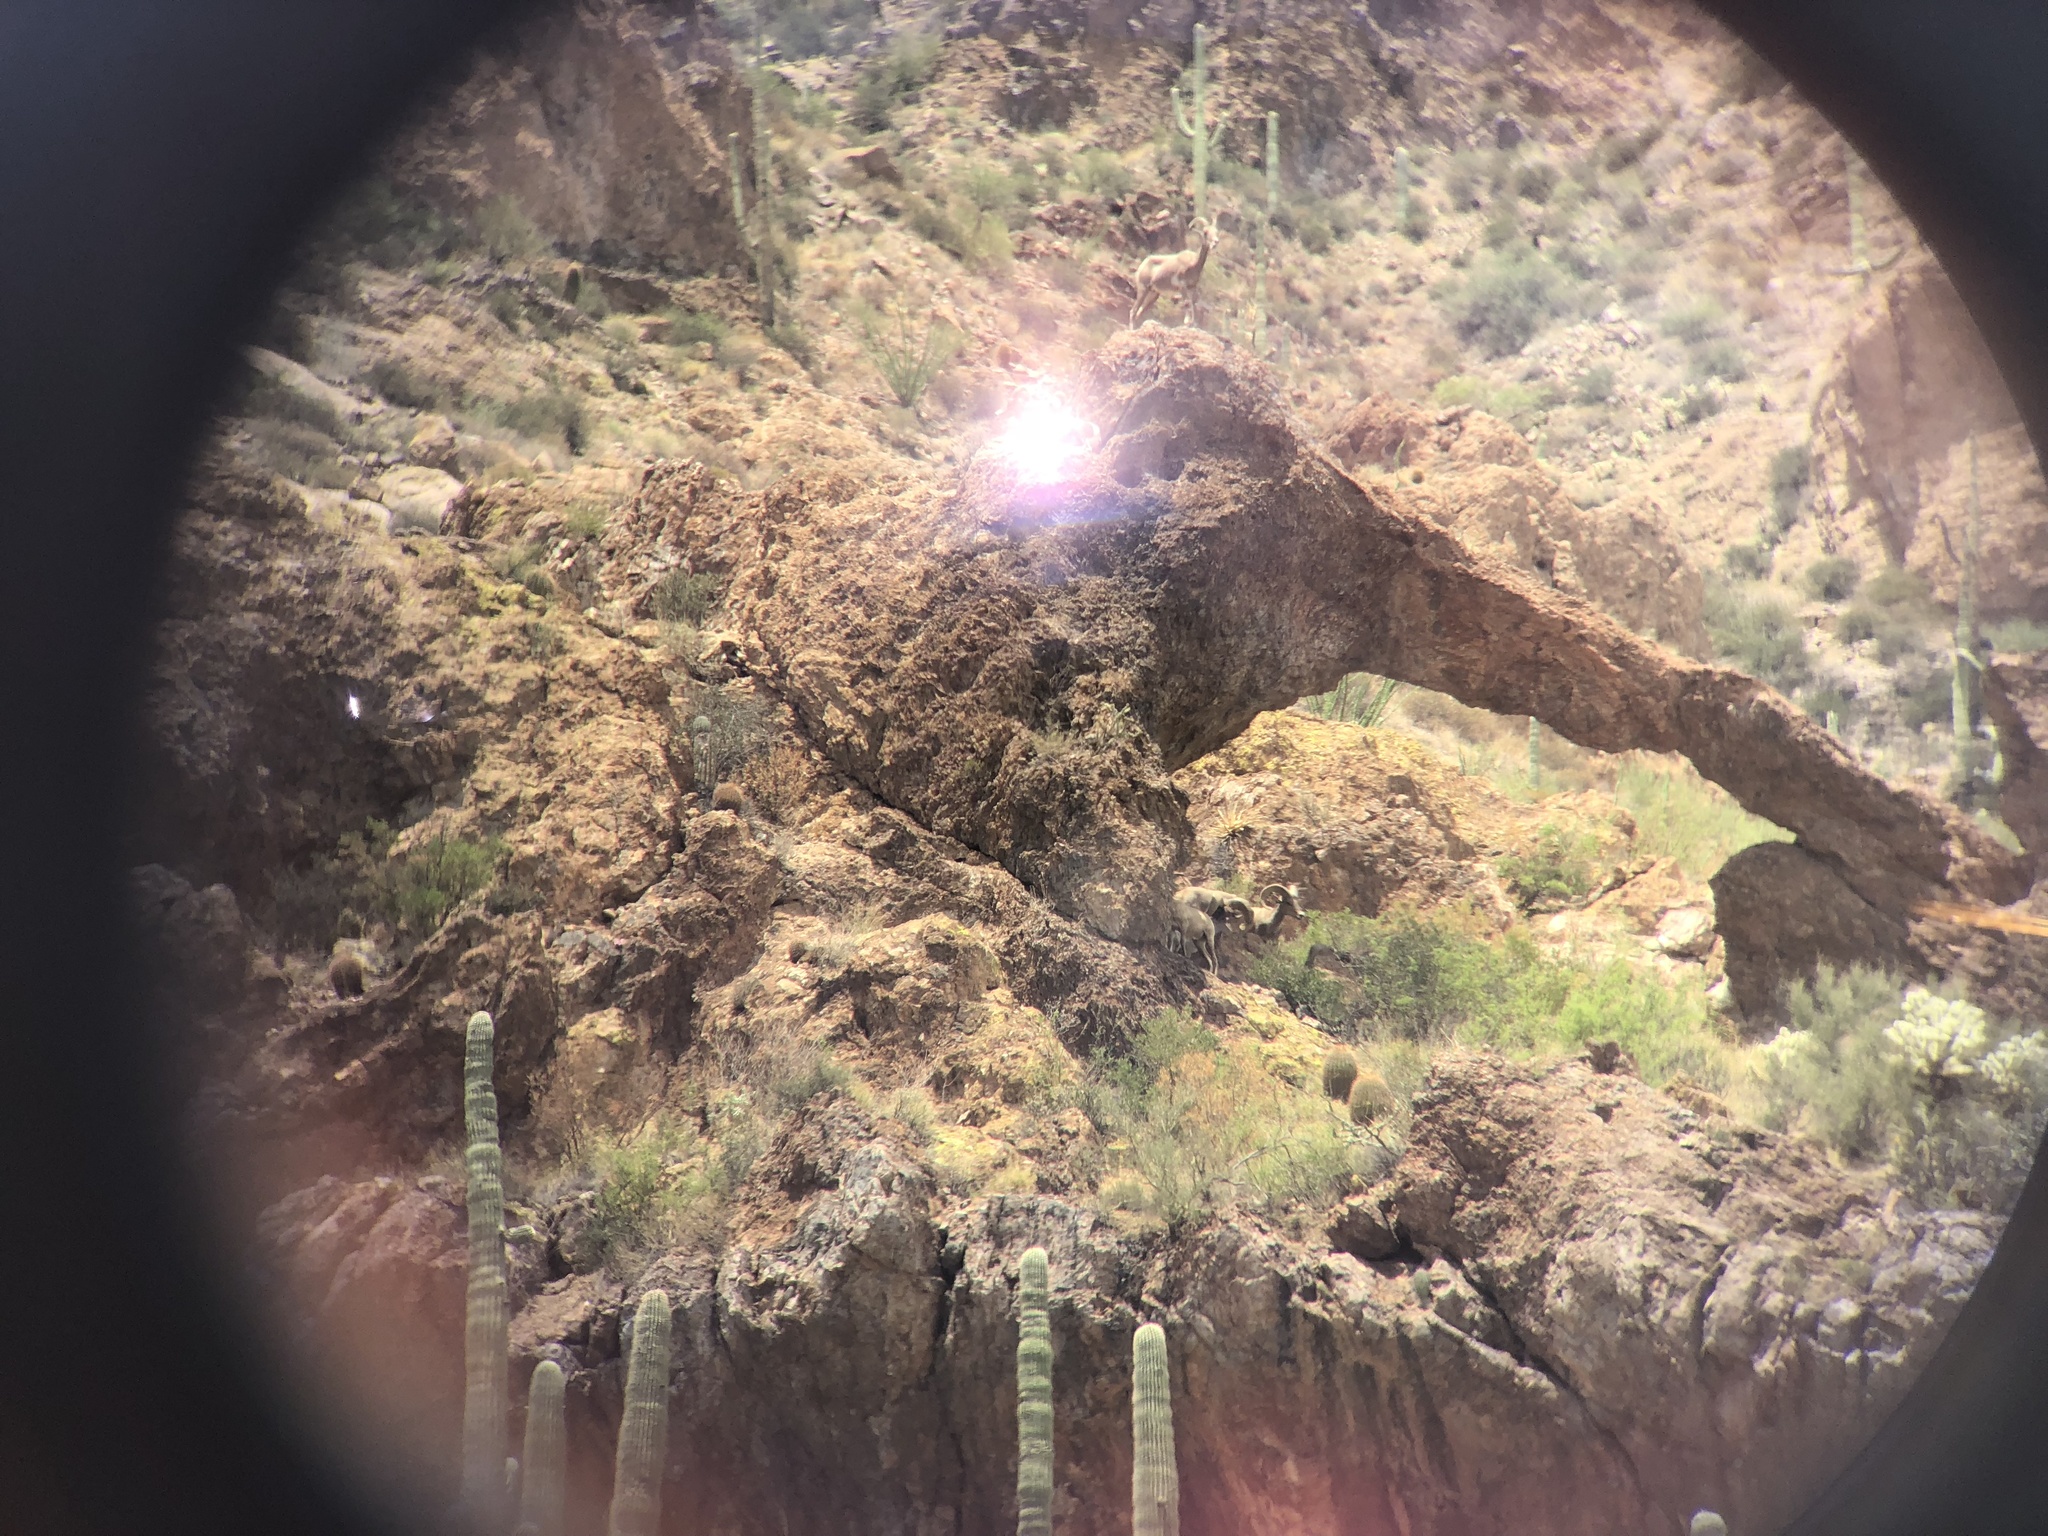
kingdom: Animalia
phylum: Chordata
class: Mammalia
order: Artiodactyla
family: Bovidae
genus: Ovis
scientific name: Ovis canadensis
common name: Bighorn sheep
